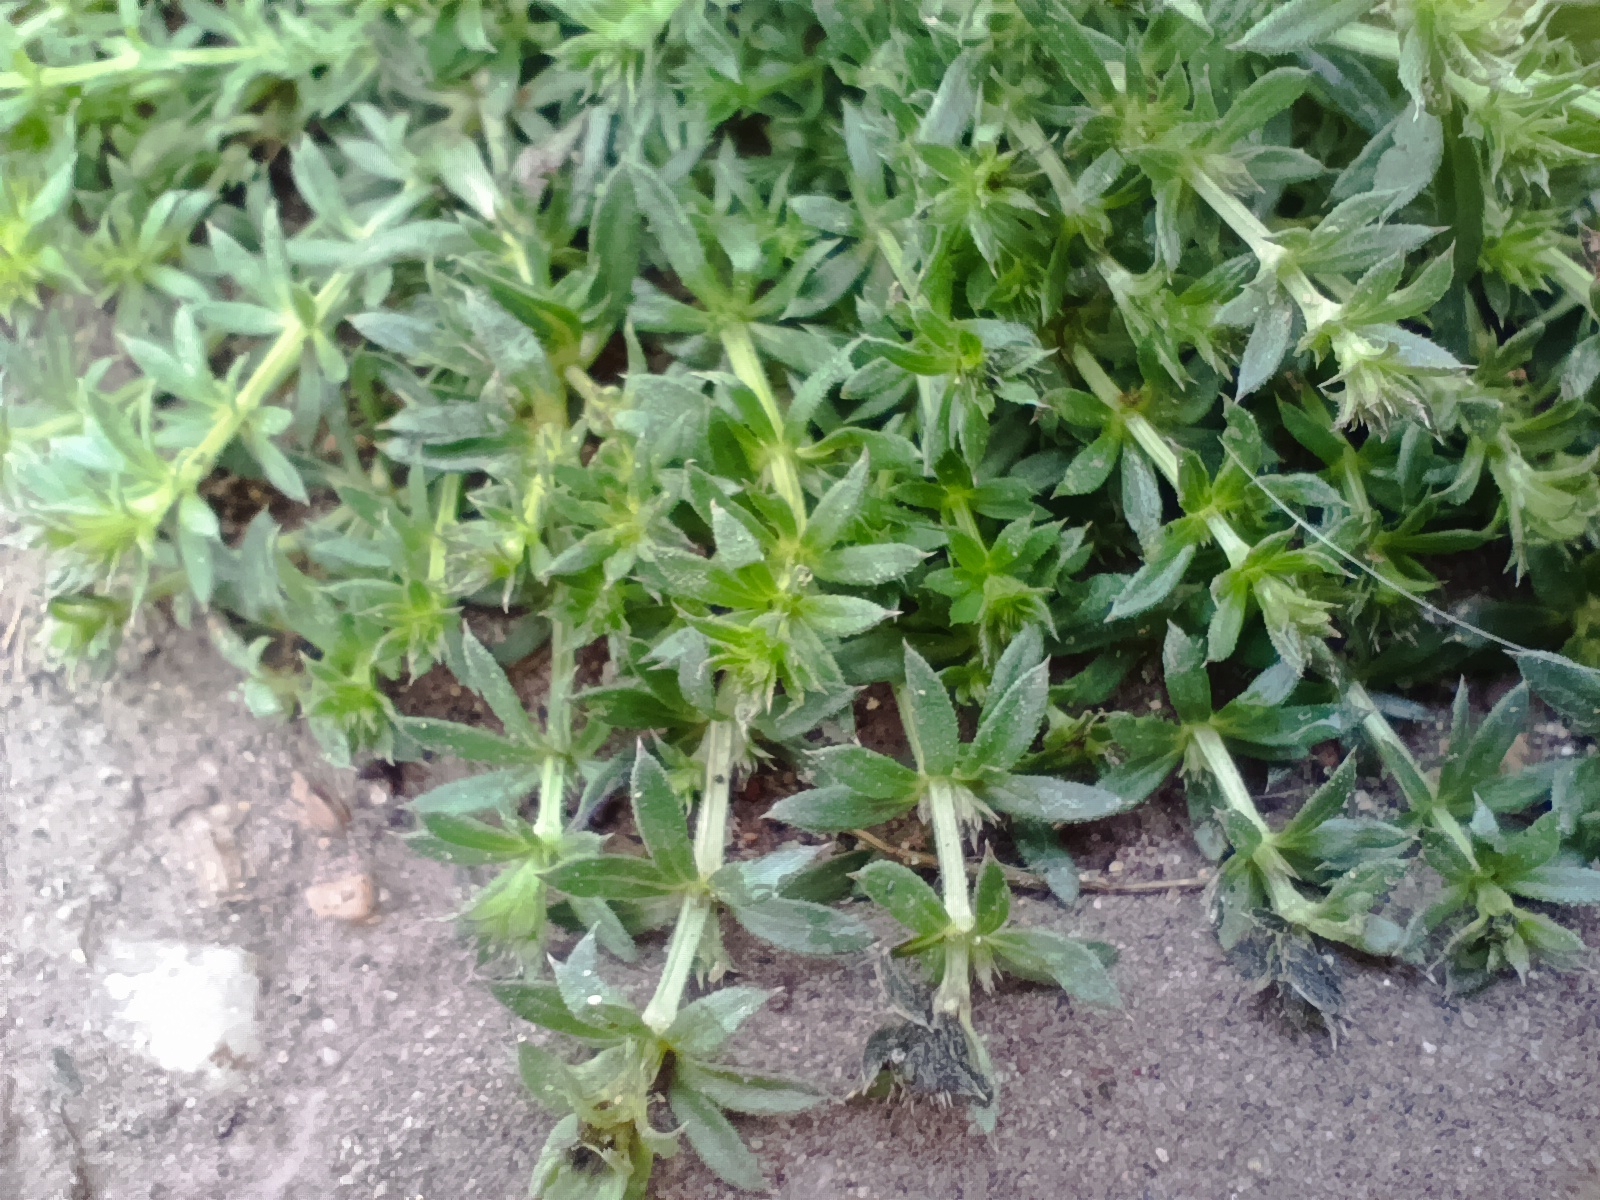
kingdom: Plantae
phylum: Tracheophyta
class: Magnoliopsida
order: Gentianales
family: Rubiaceae
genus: Galium
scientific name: Galium humifusum
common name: Spreading bedstraw
